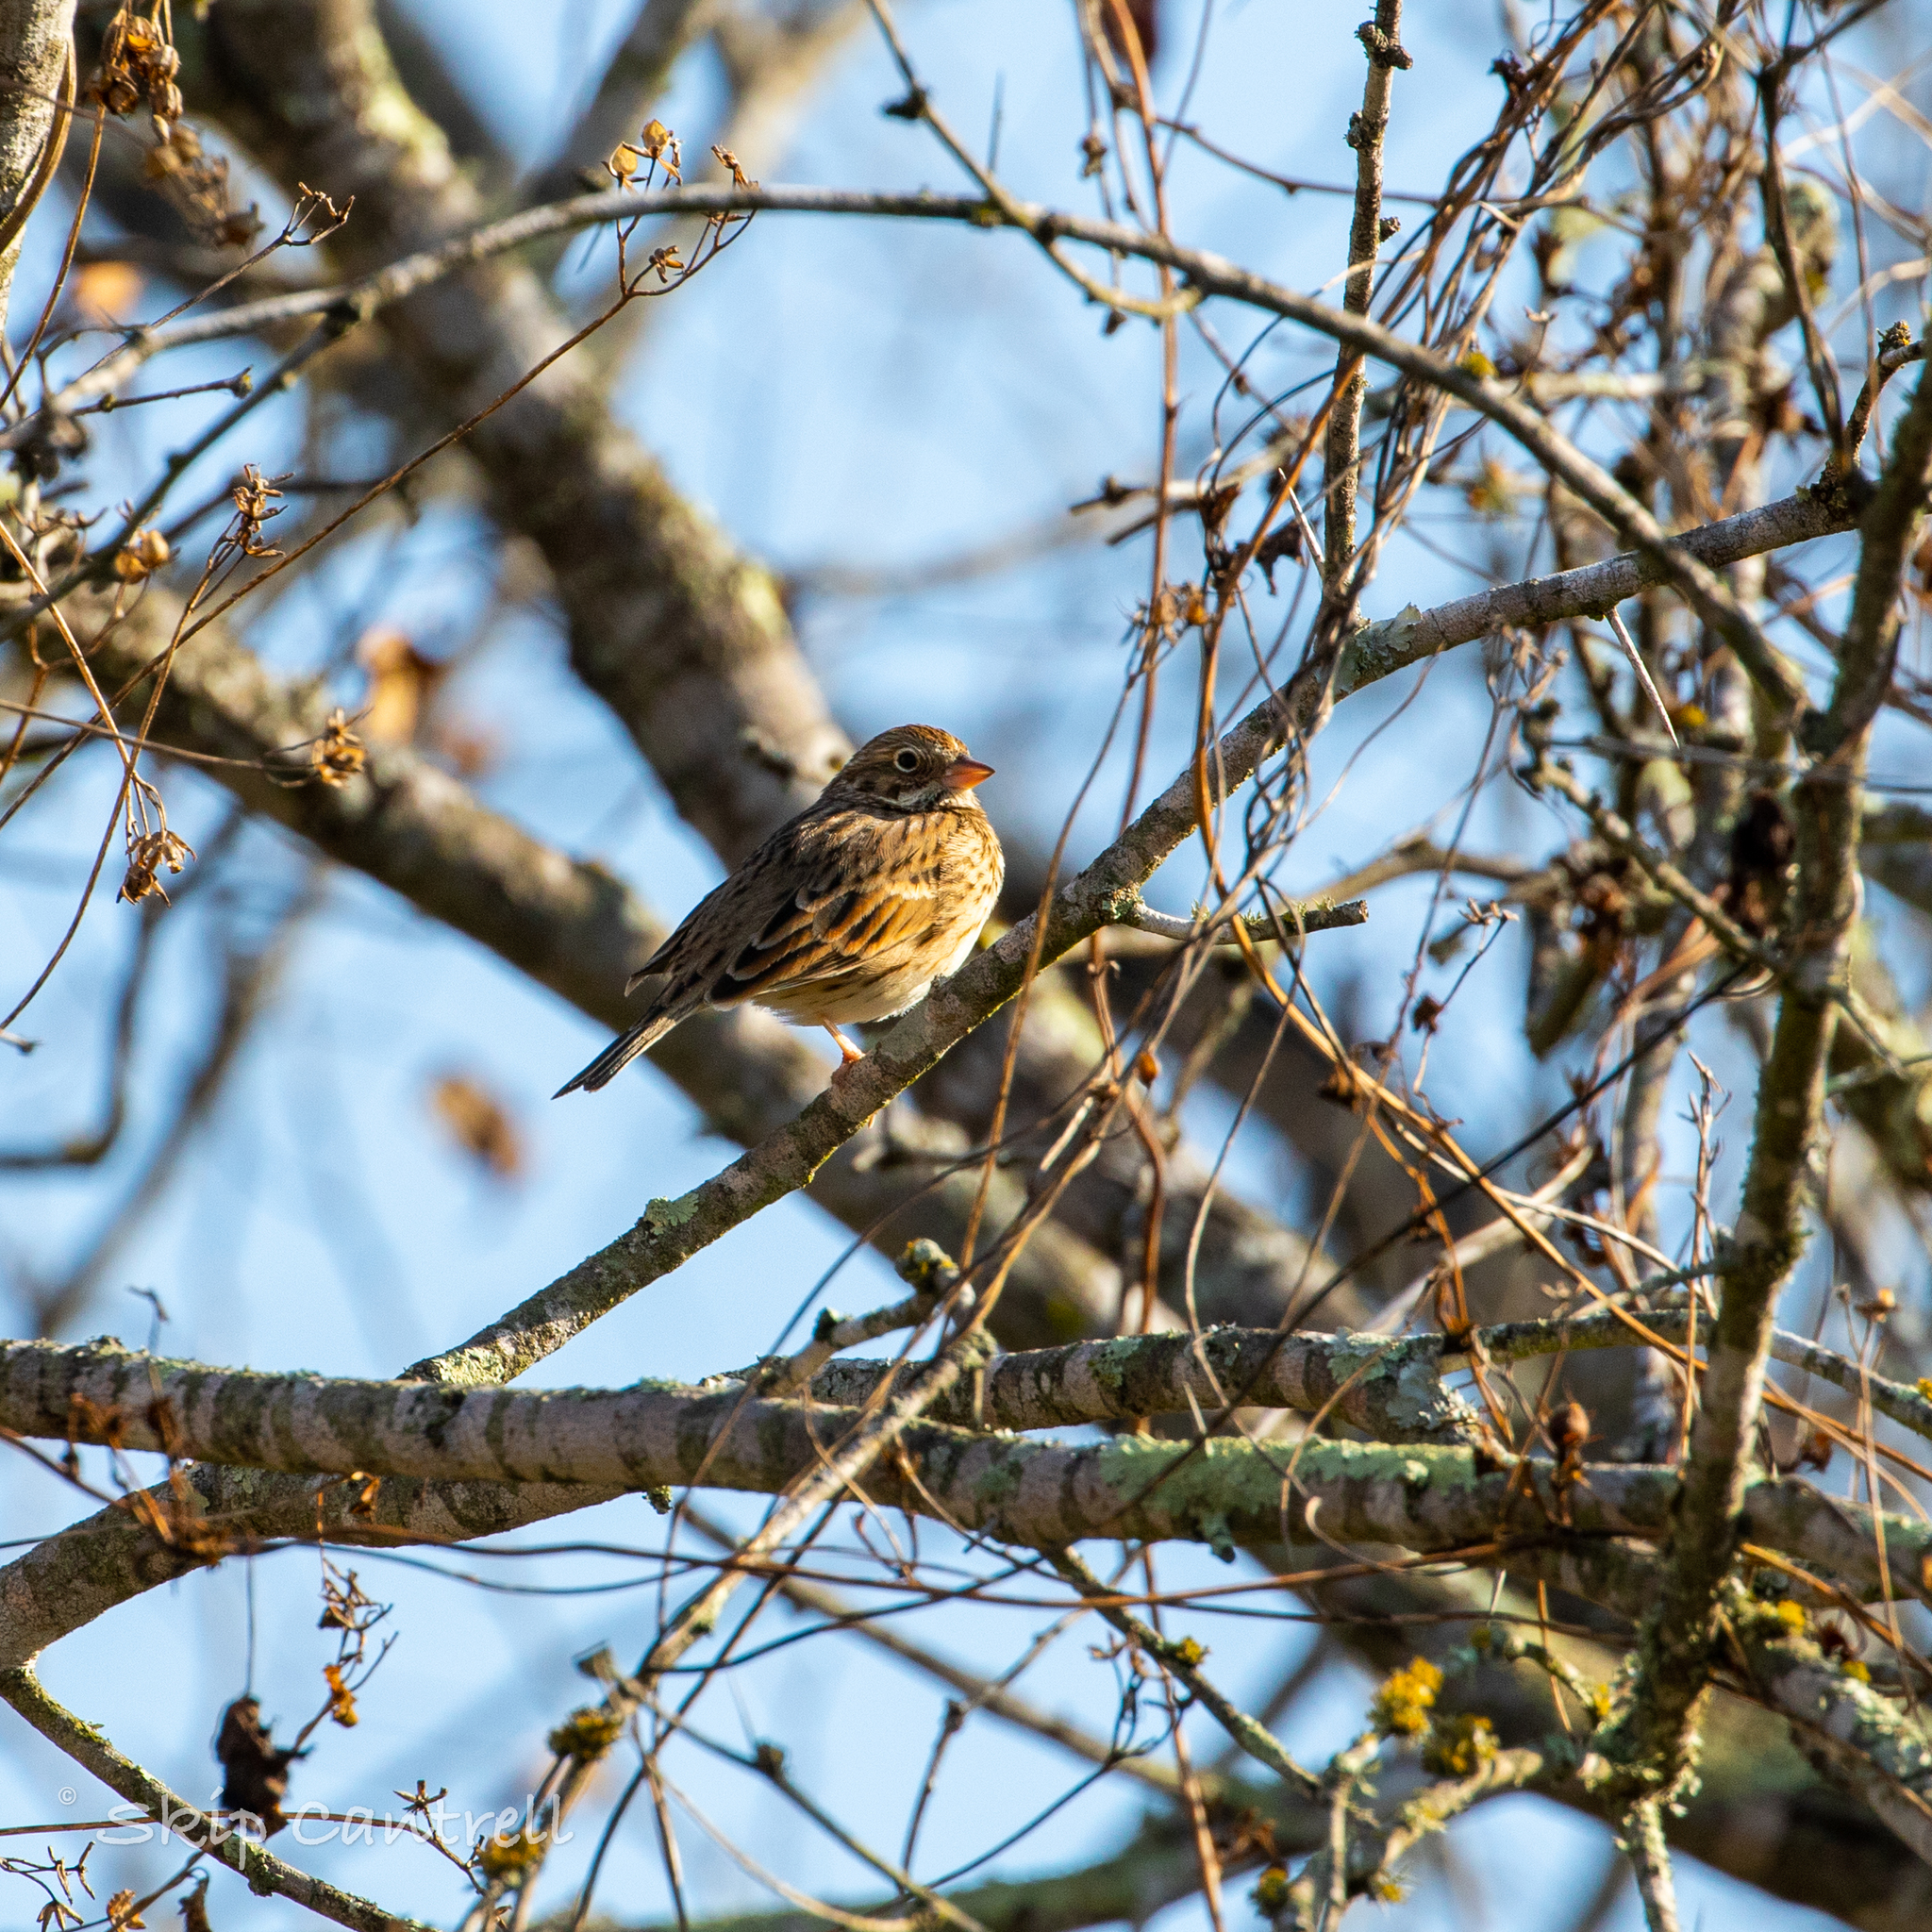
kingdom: Animalia
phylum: Chordata
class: Aves
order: Passeriformes
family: Passerellidae
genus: Pooecetes
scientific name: Pooecetes gramineus
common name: Vesper sparrow
